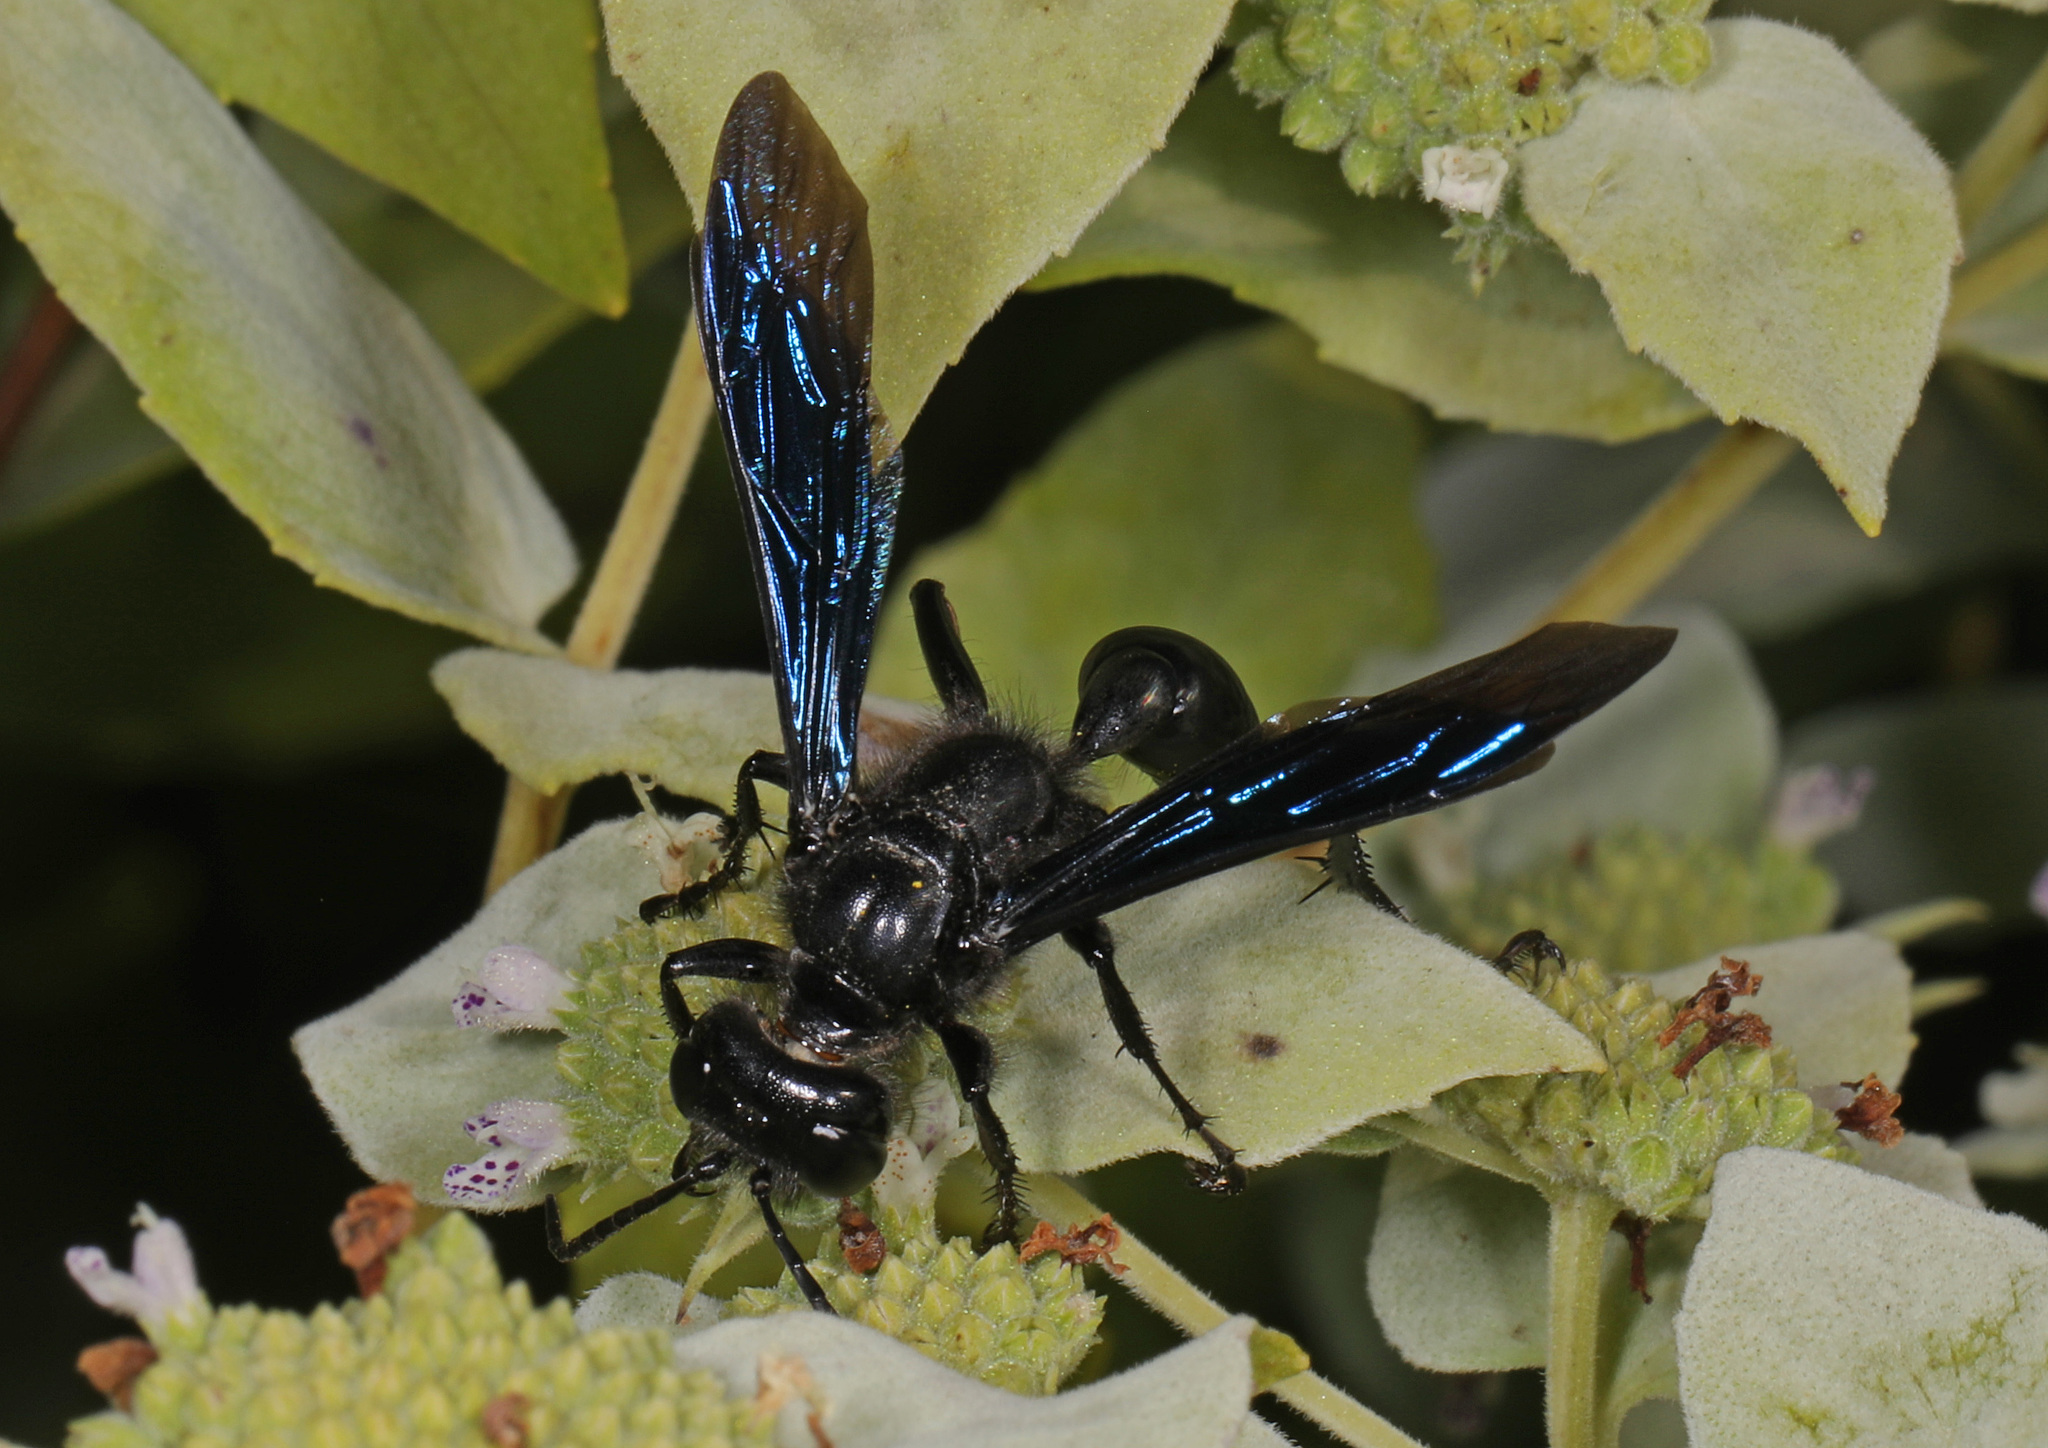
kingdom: Animalia
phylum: Arthropoda
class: Insecta
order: Hymenoptera
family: Sphecidae
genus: Isodontia
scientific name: Isodontia philadelphica
